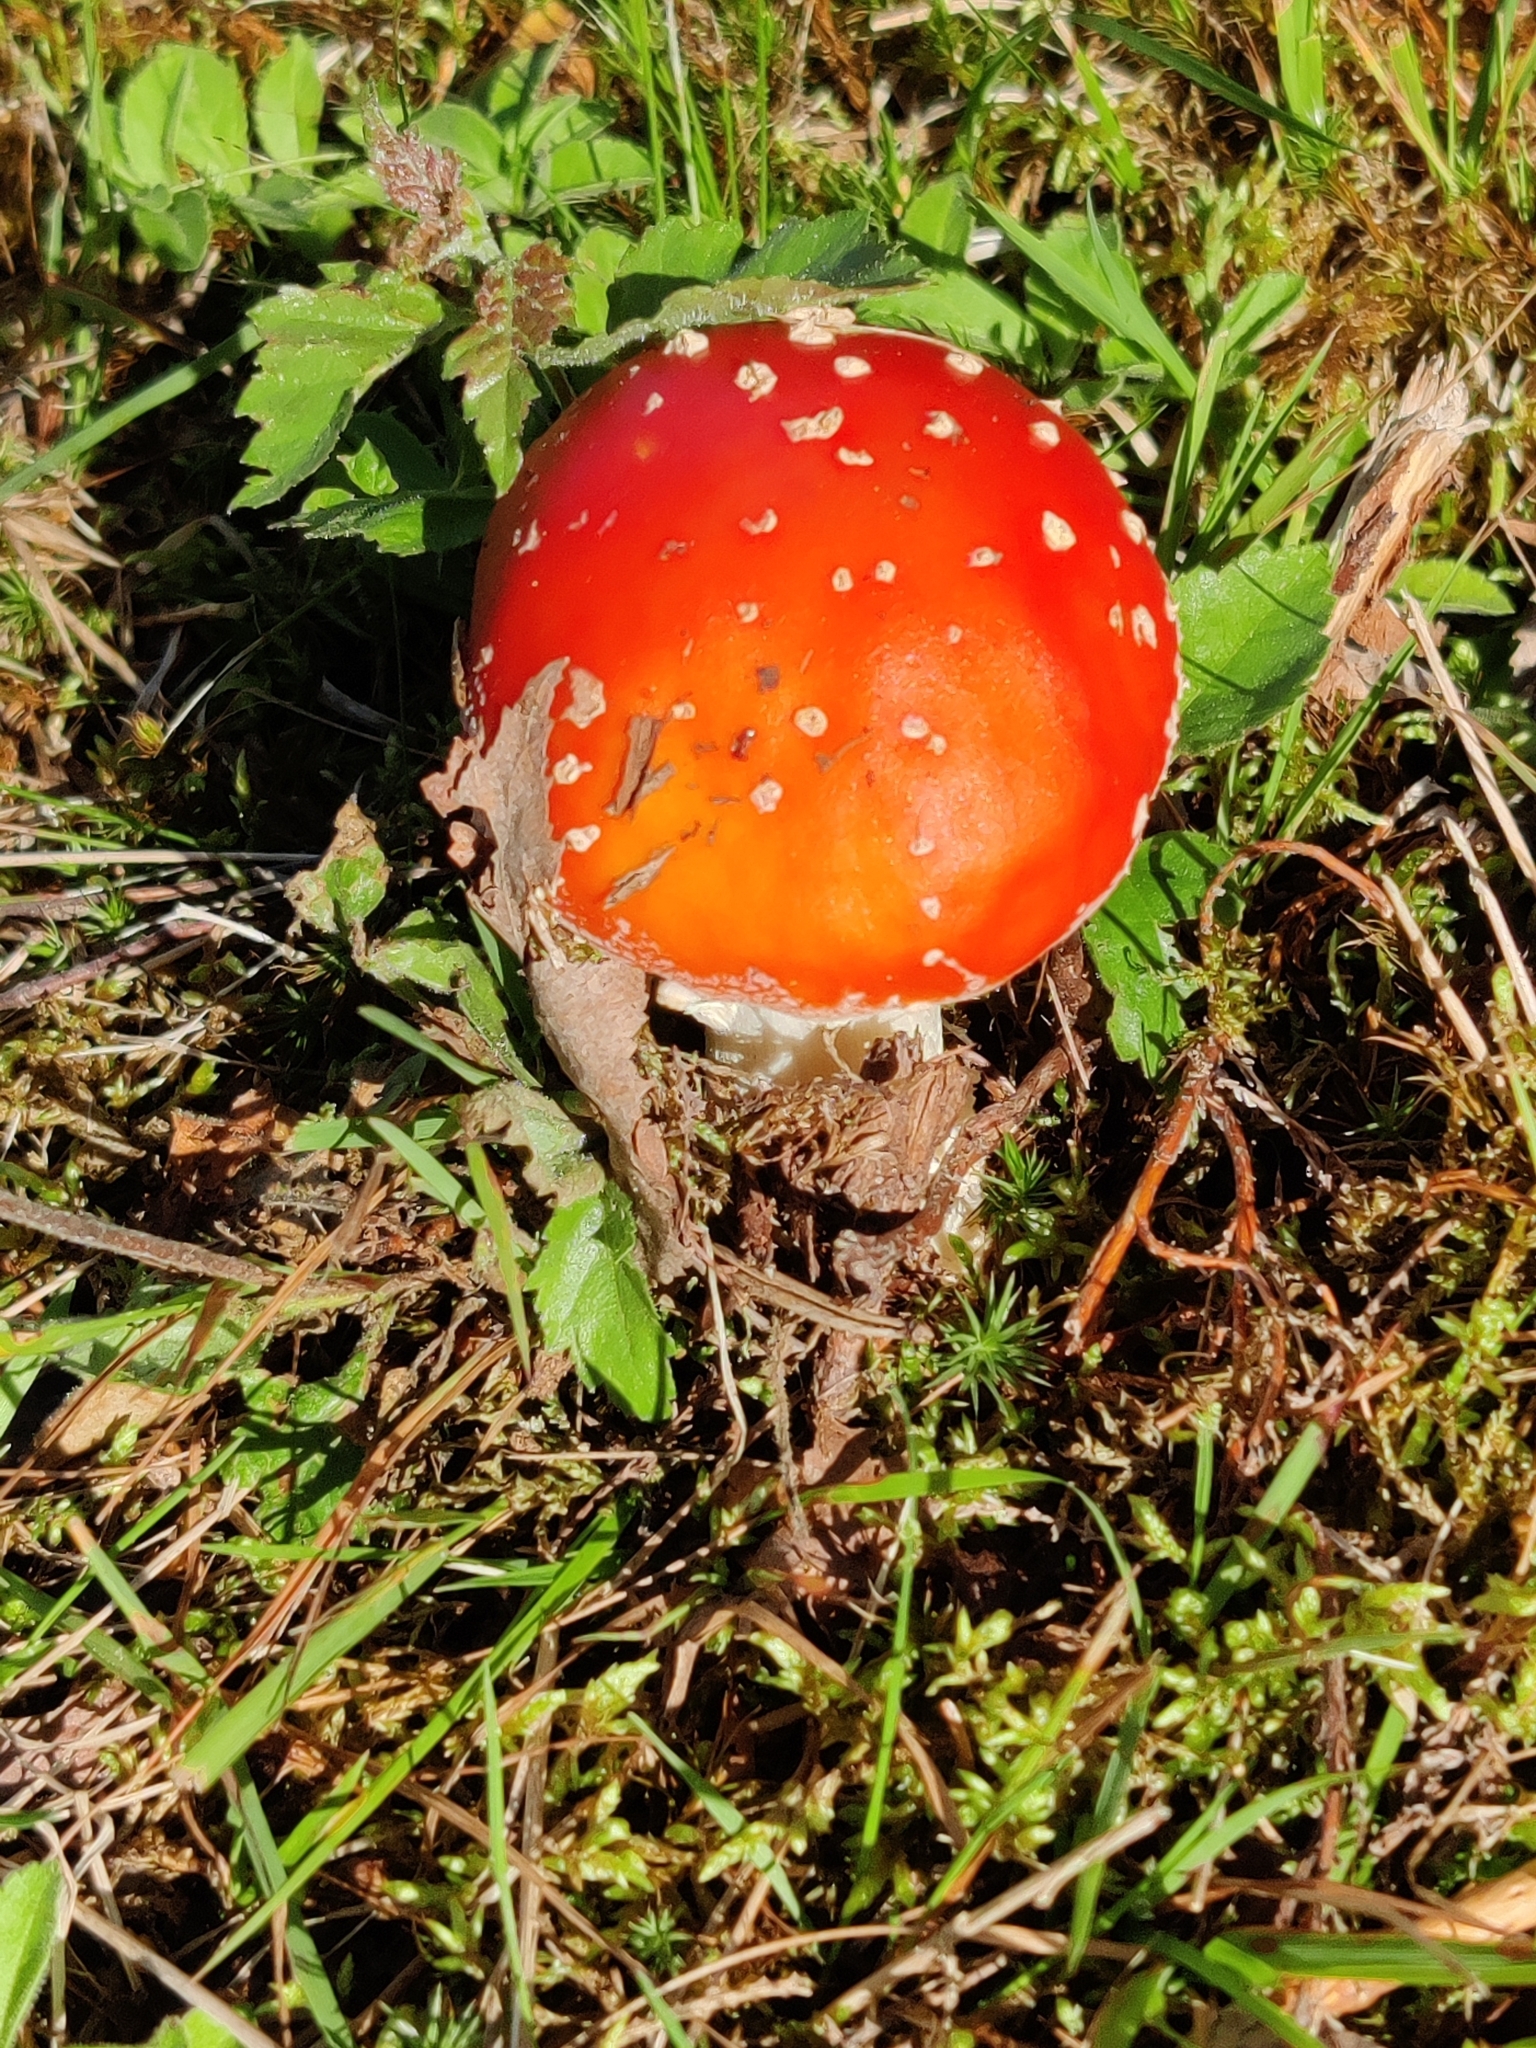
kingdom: Fungi
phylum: Basidiomycota
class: Agaricomycetes
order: Agaricales
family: Amanitaceae
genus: Amanita
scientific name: Amanita muscaria
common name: Fly agaric
